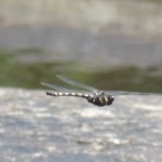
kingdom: Animalia
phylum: Arthropoda
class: Insecta
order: Odonata
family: Cordulegastridae
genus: Cordulegaster
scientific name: Cordulegaster dorsalis
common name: Pacific spiketail
